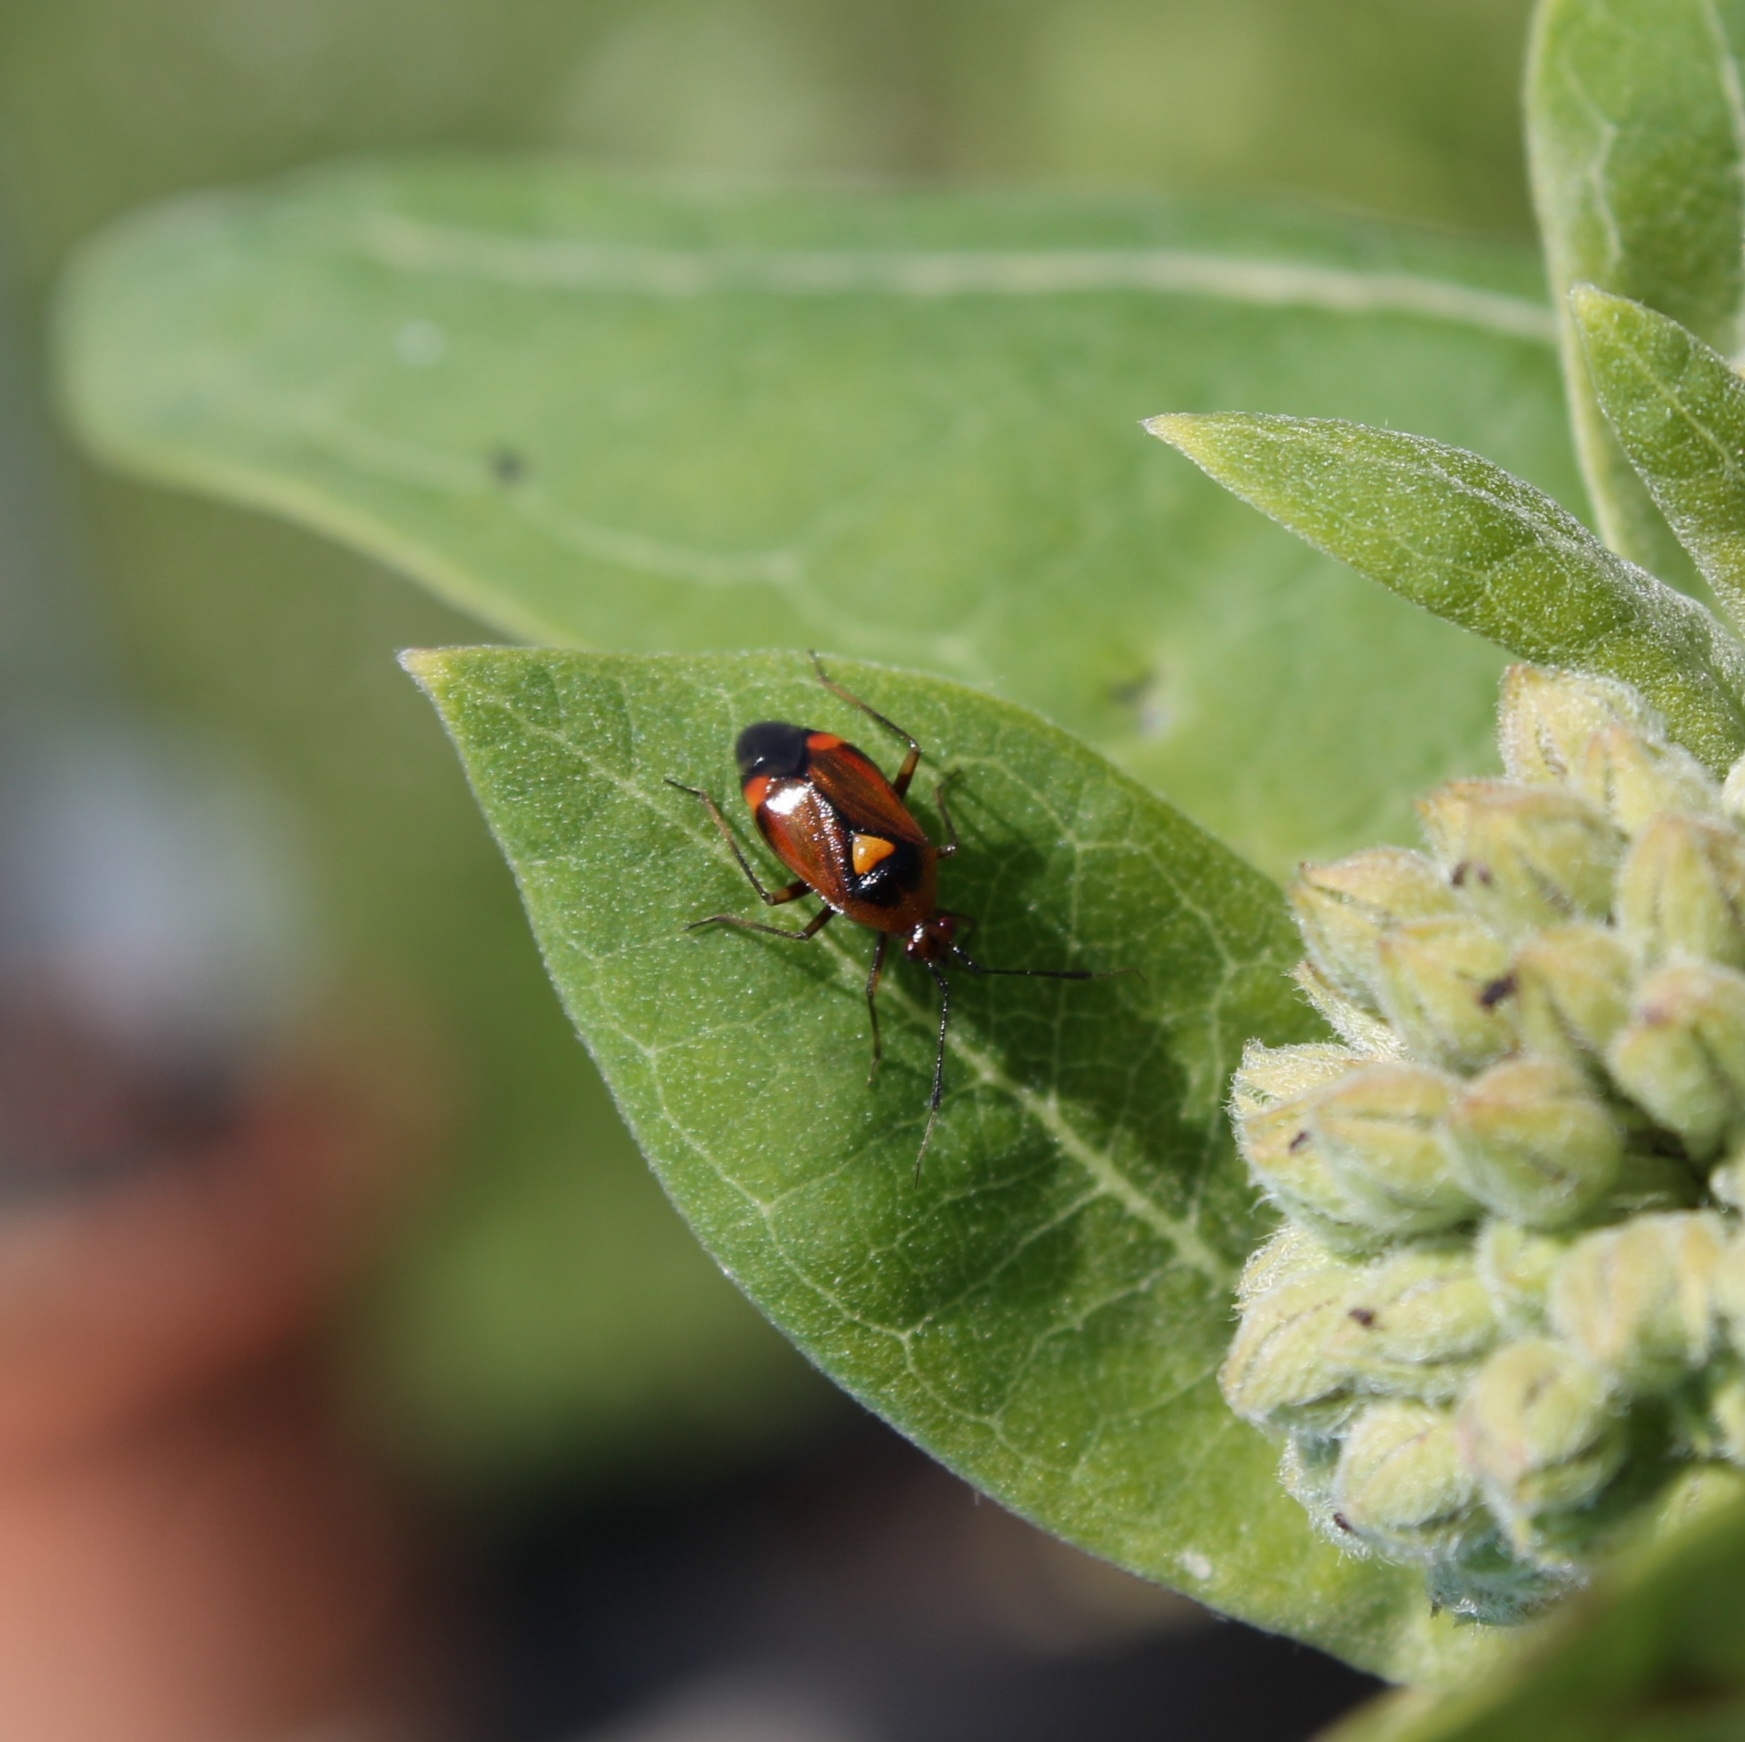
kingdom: Animalia
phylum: Arthropoda
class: Insecta
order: Hemiptera
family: Miridae
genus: Deraeocoris
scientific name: Deraeocoris ruber
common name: Plant bug
